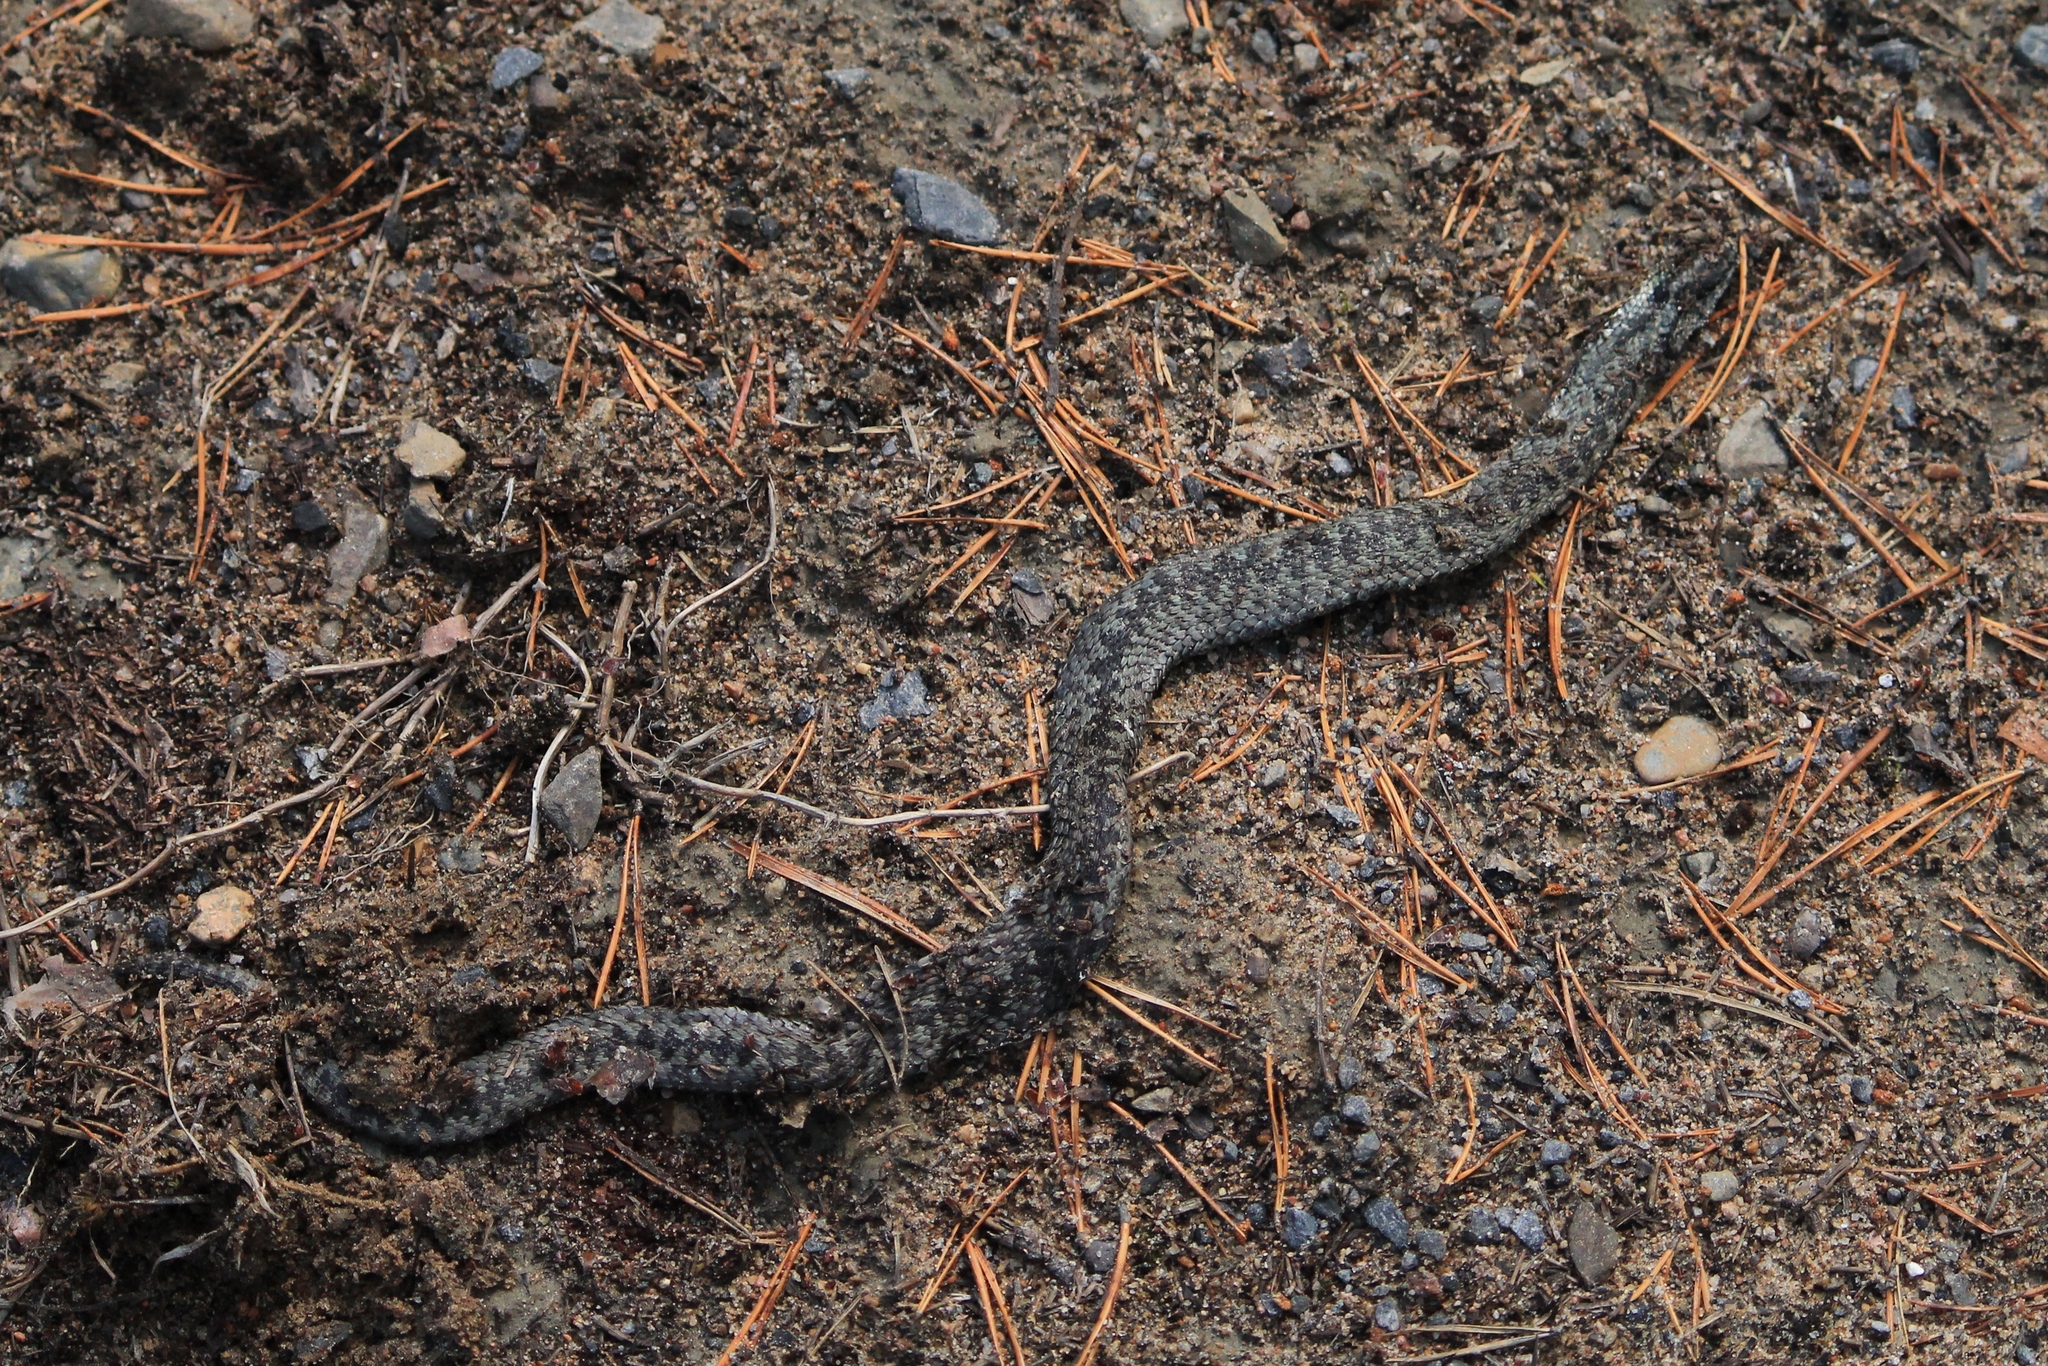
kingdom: Animalia
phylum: Chordata
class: Squamata
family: Viperidae
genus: Vipera
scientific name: Vipera berus
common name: Adder
